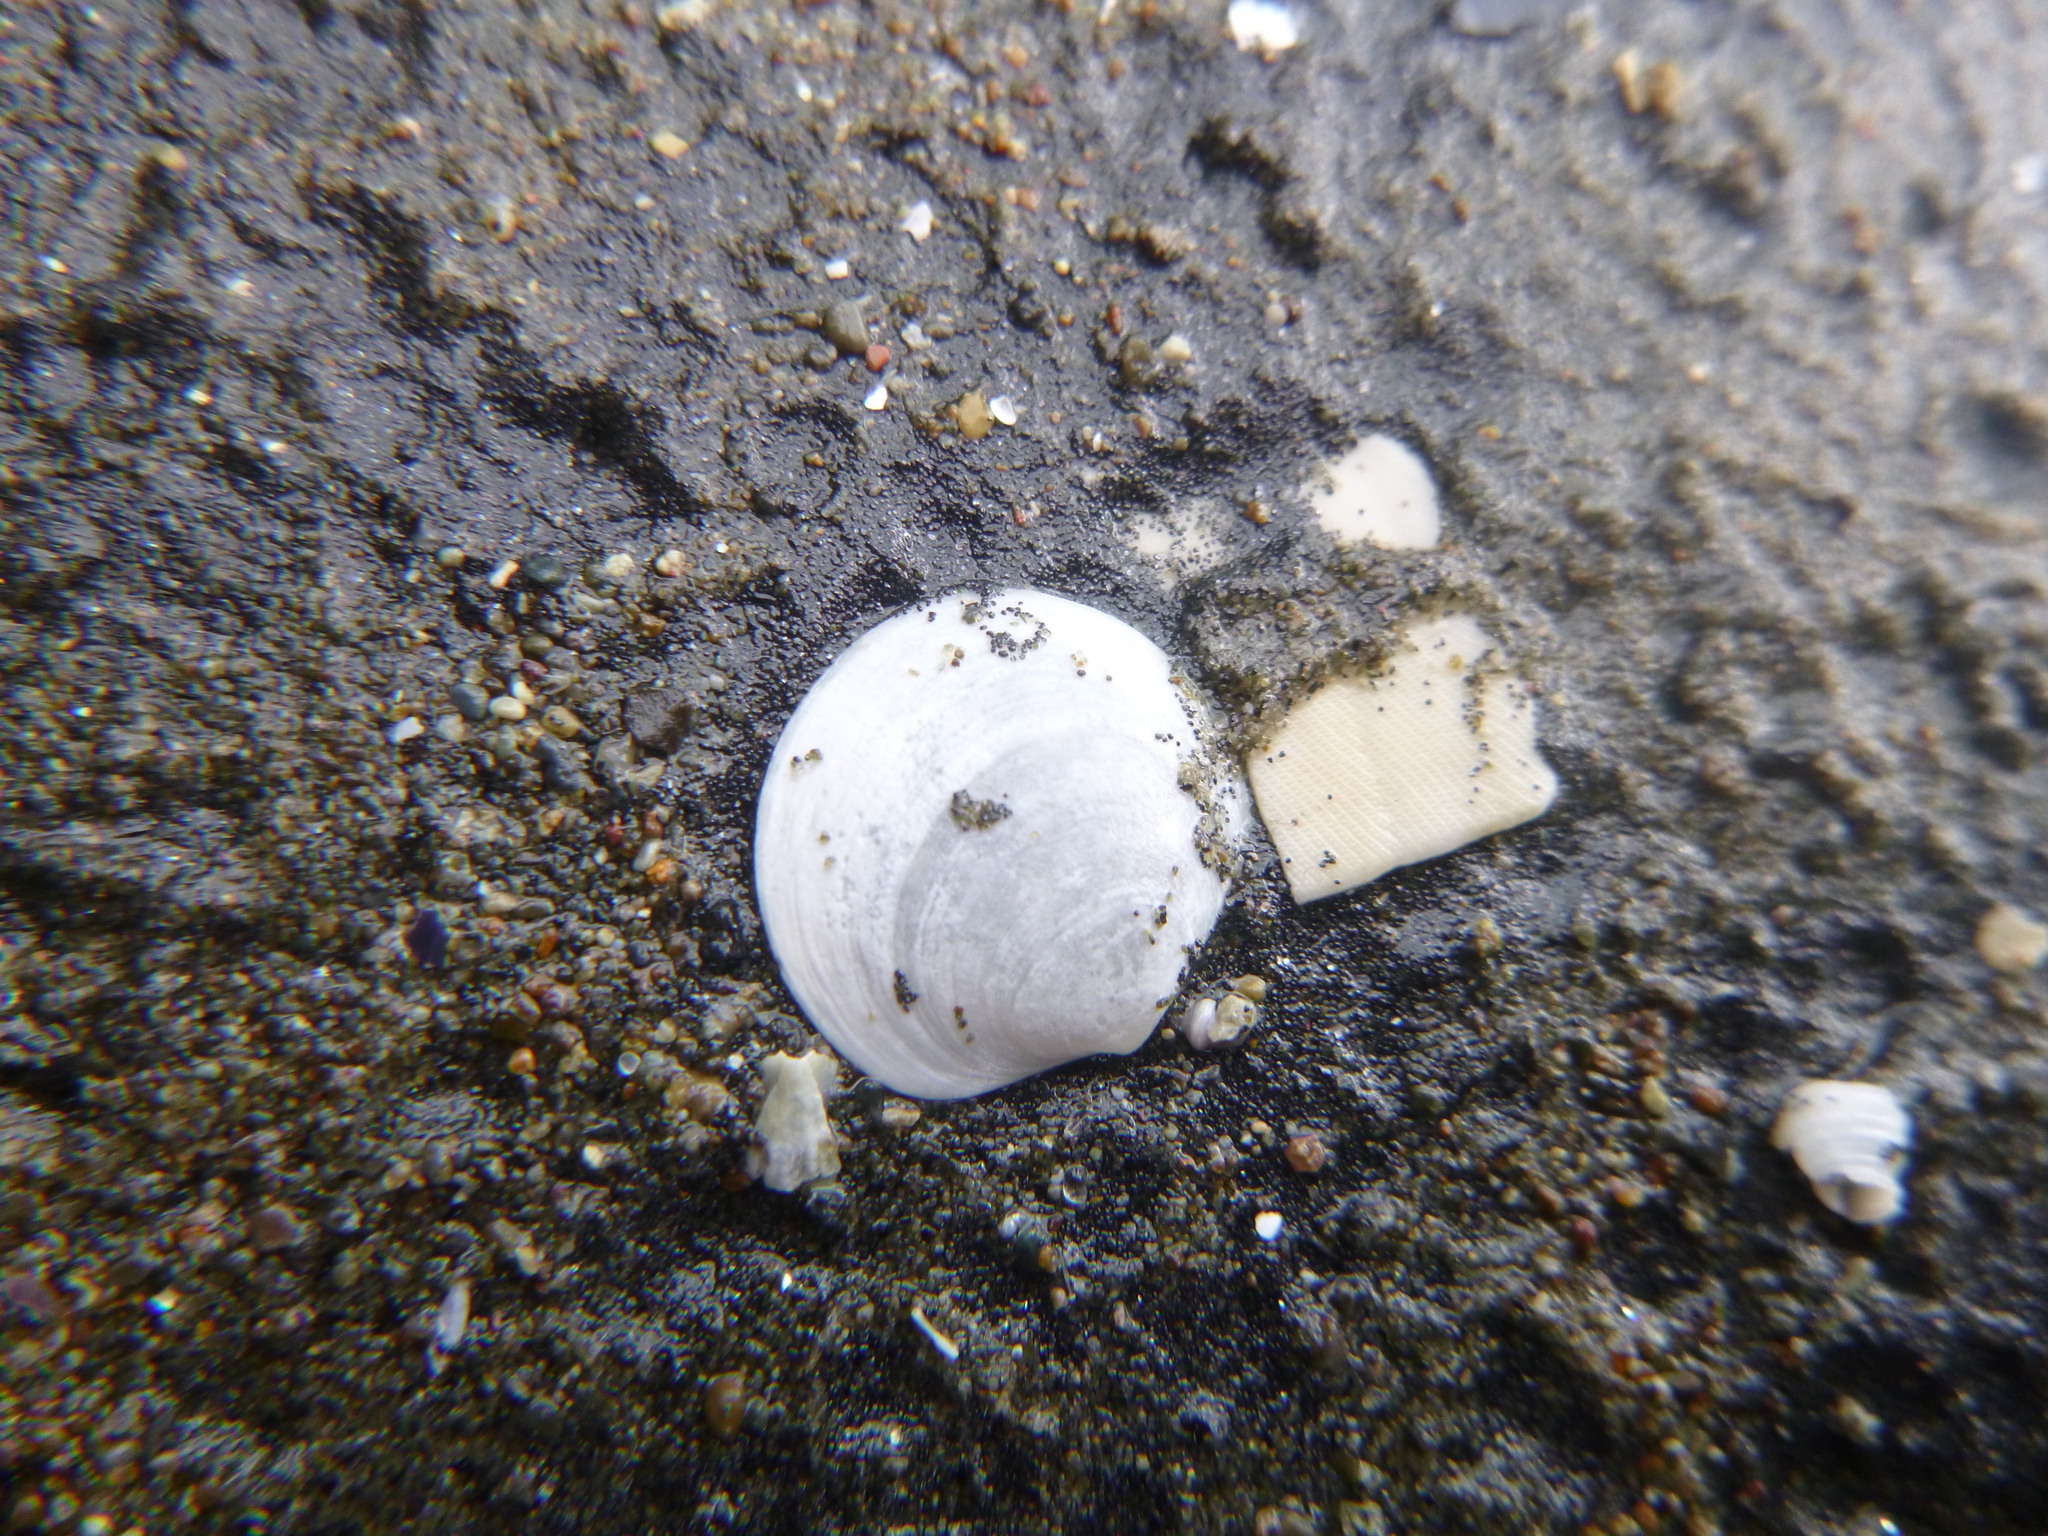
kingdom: Animalia
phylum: Mollusca
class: Bivalvia
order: Venerida
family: Ungulinidae
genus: Zemysia
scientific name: Zemysia zelandica
